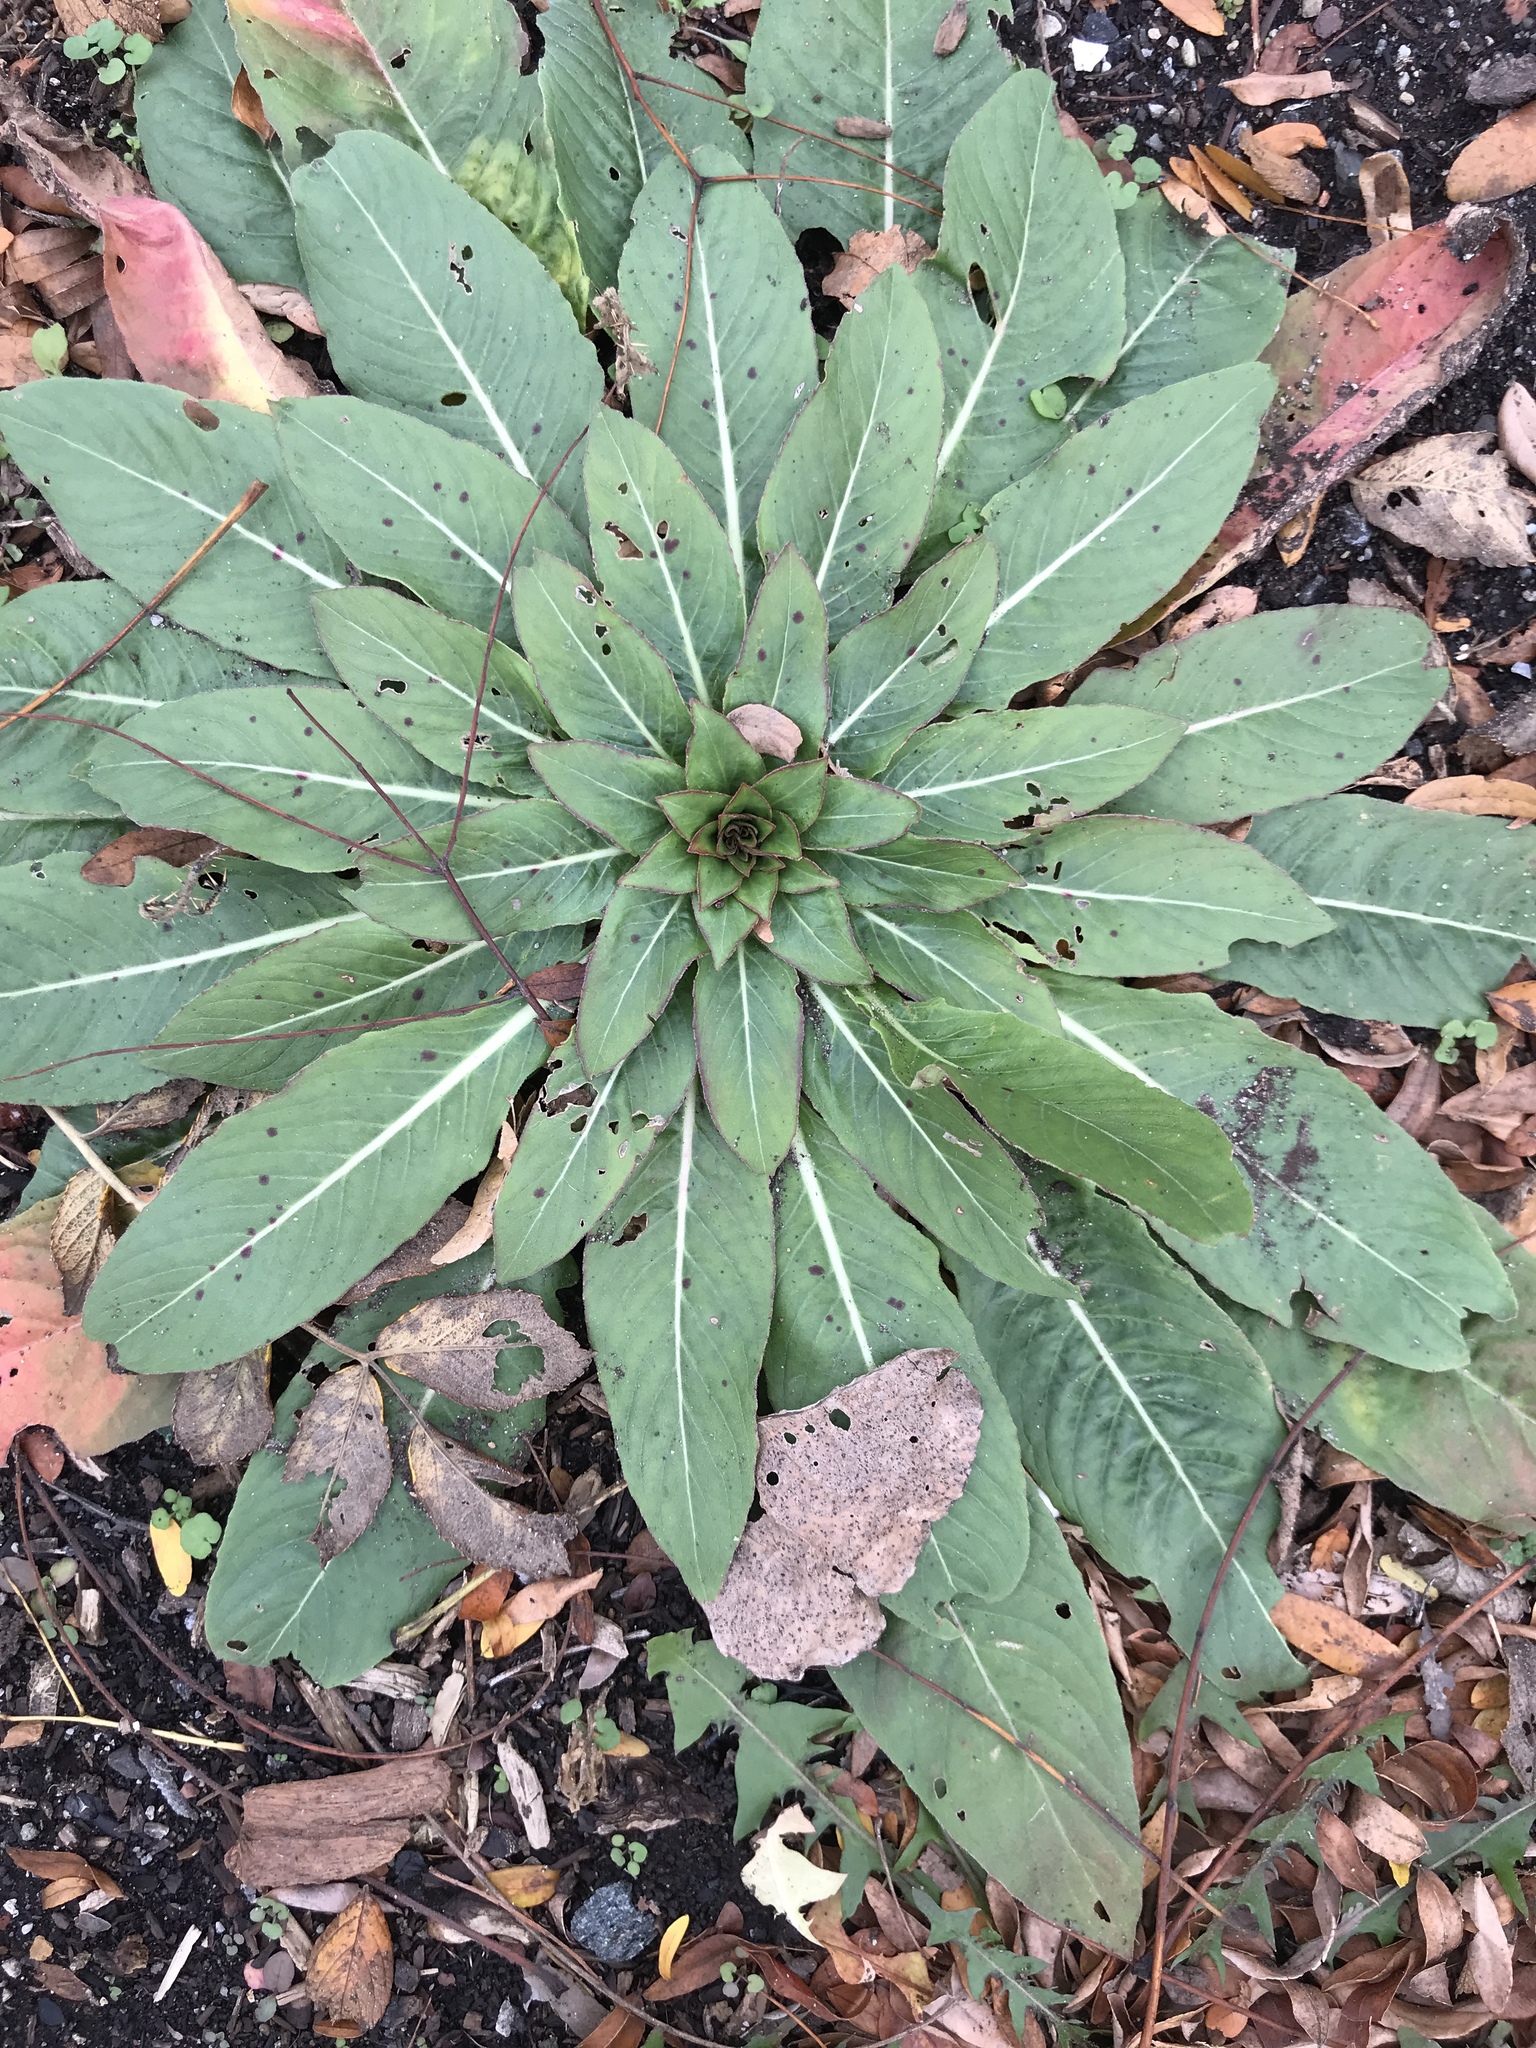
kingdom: Plantae
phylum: Tracheophyta
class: Magnoliopsida
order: Myrtales
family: Onagraceae
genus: Oenothera
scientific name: Oenothera biennis
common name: Common evening-primrose
